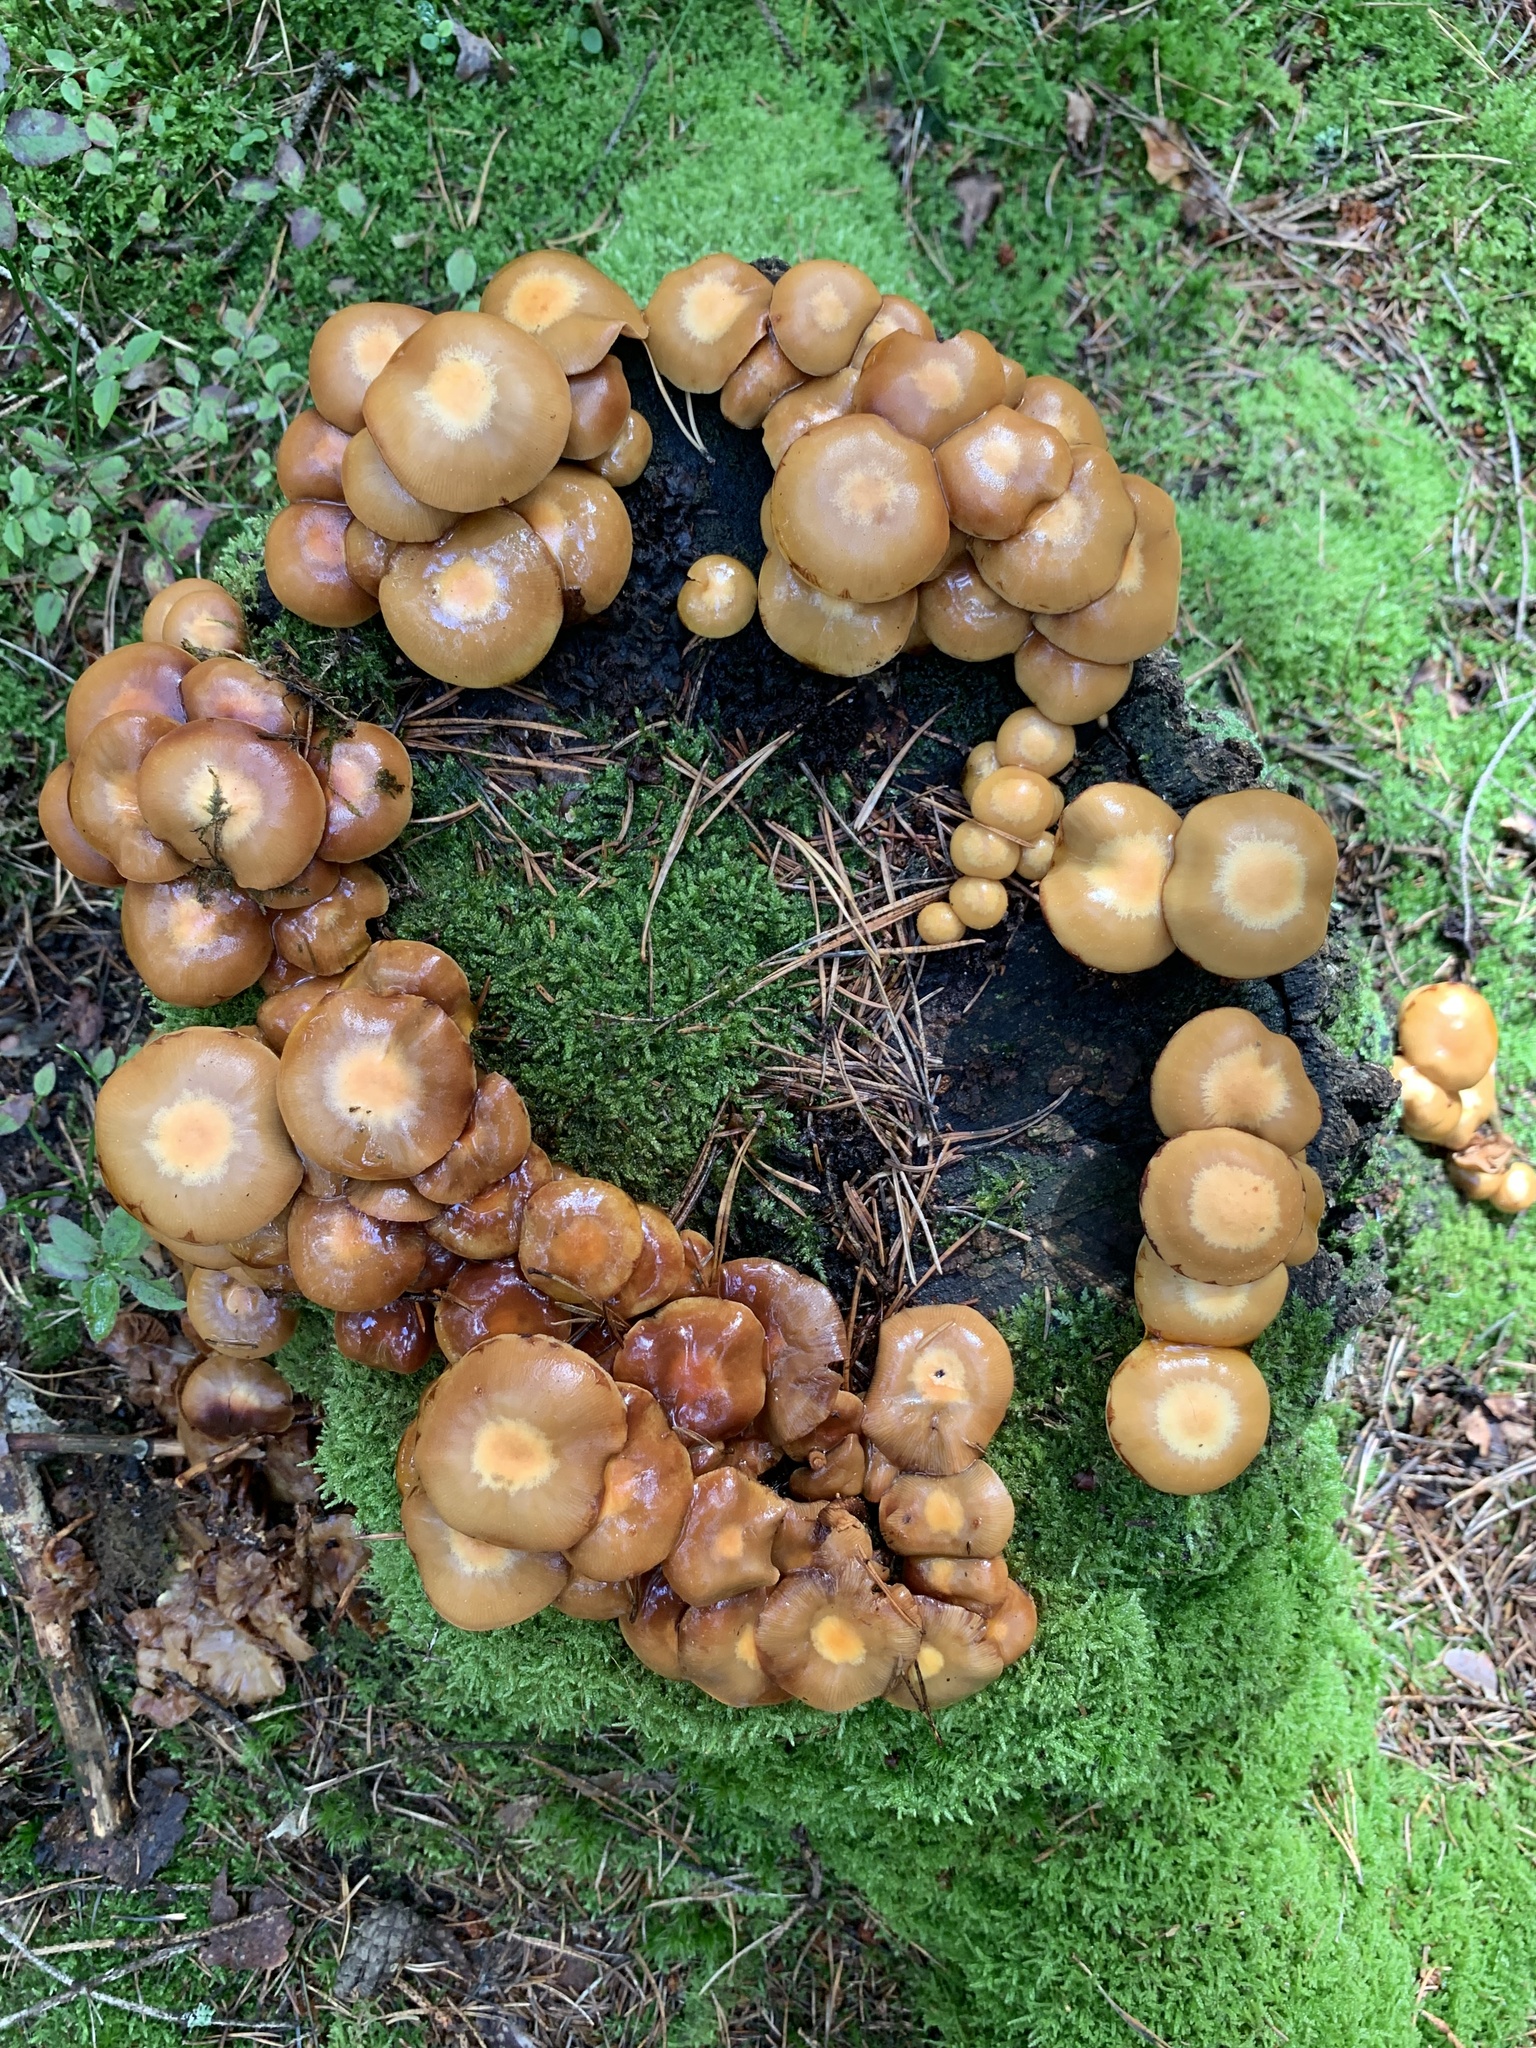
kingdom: Fungi
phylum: Basidiomycota
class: Agaricomycetes
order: Agaricales
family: Strophariaceae
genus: Kuehneromyces
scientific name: Kuehneromyces mutabilis
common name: Sheathed woodtuft
